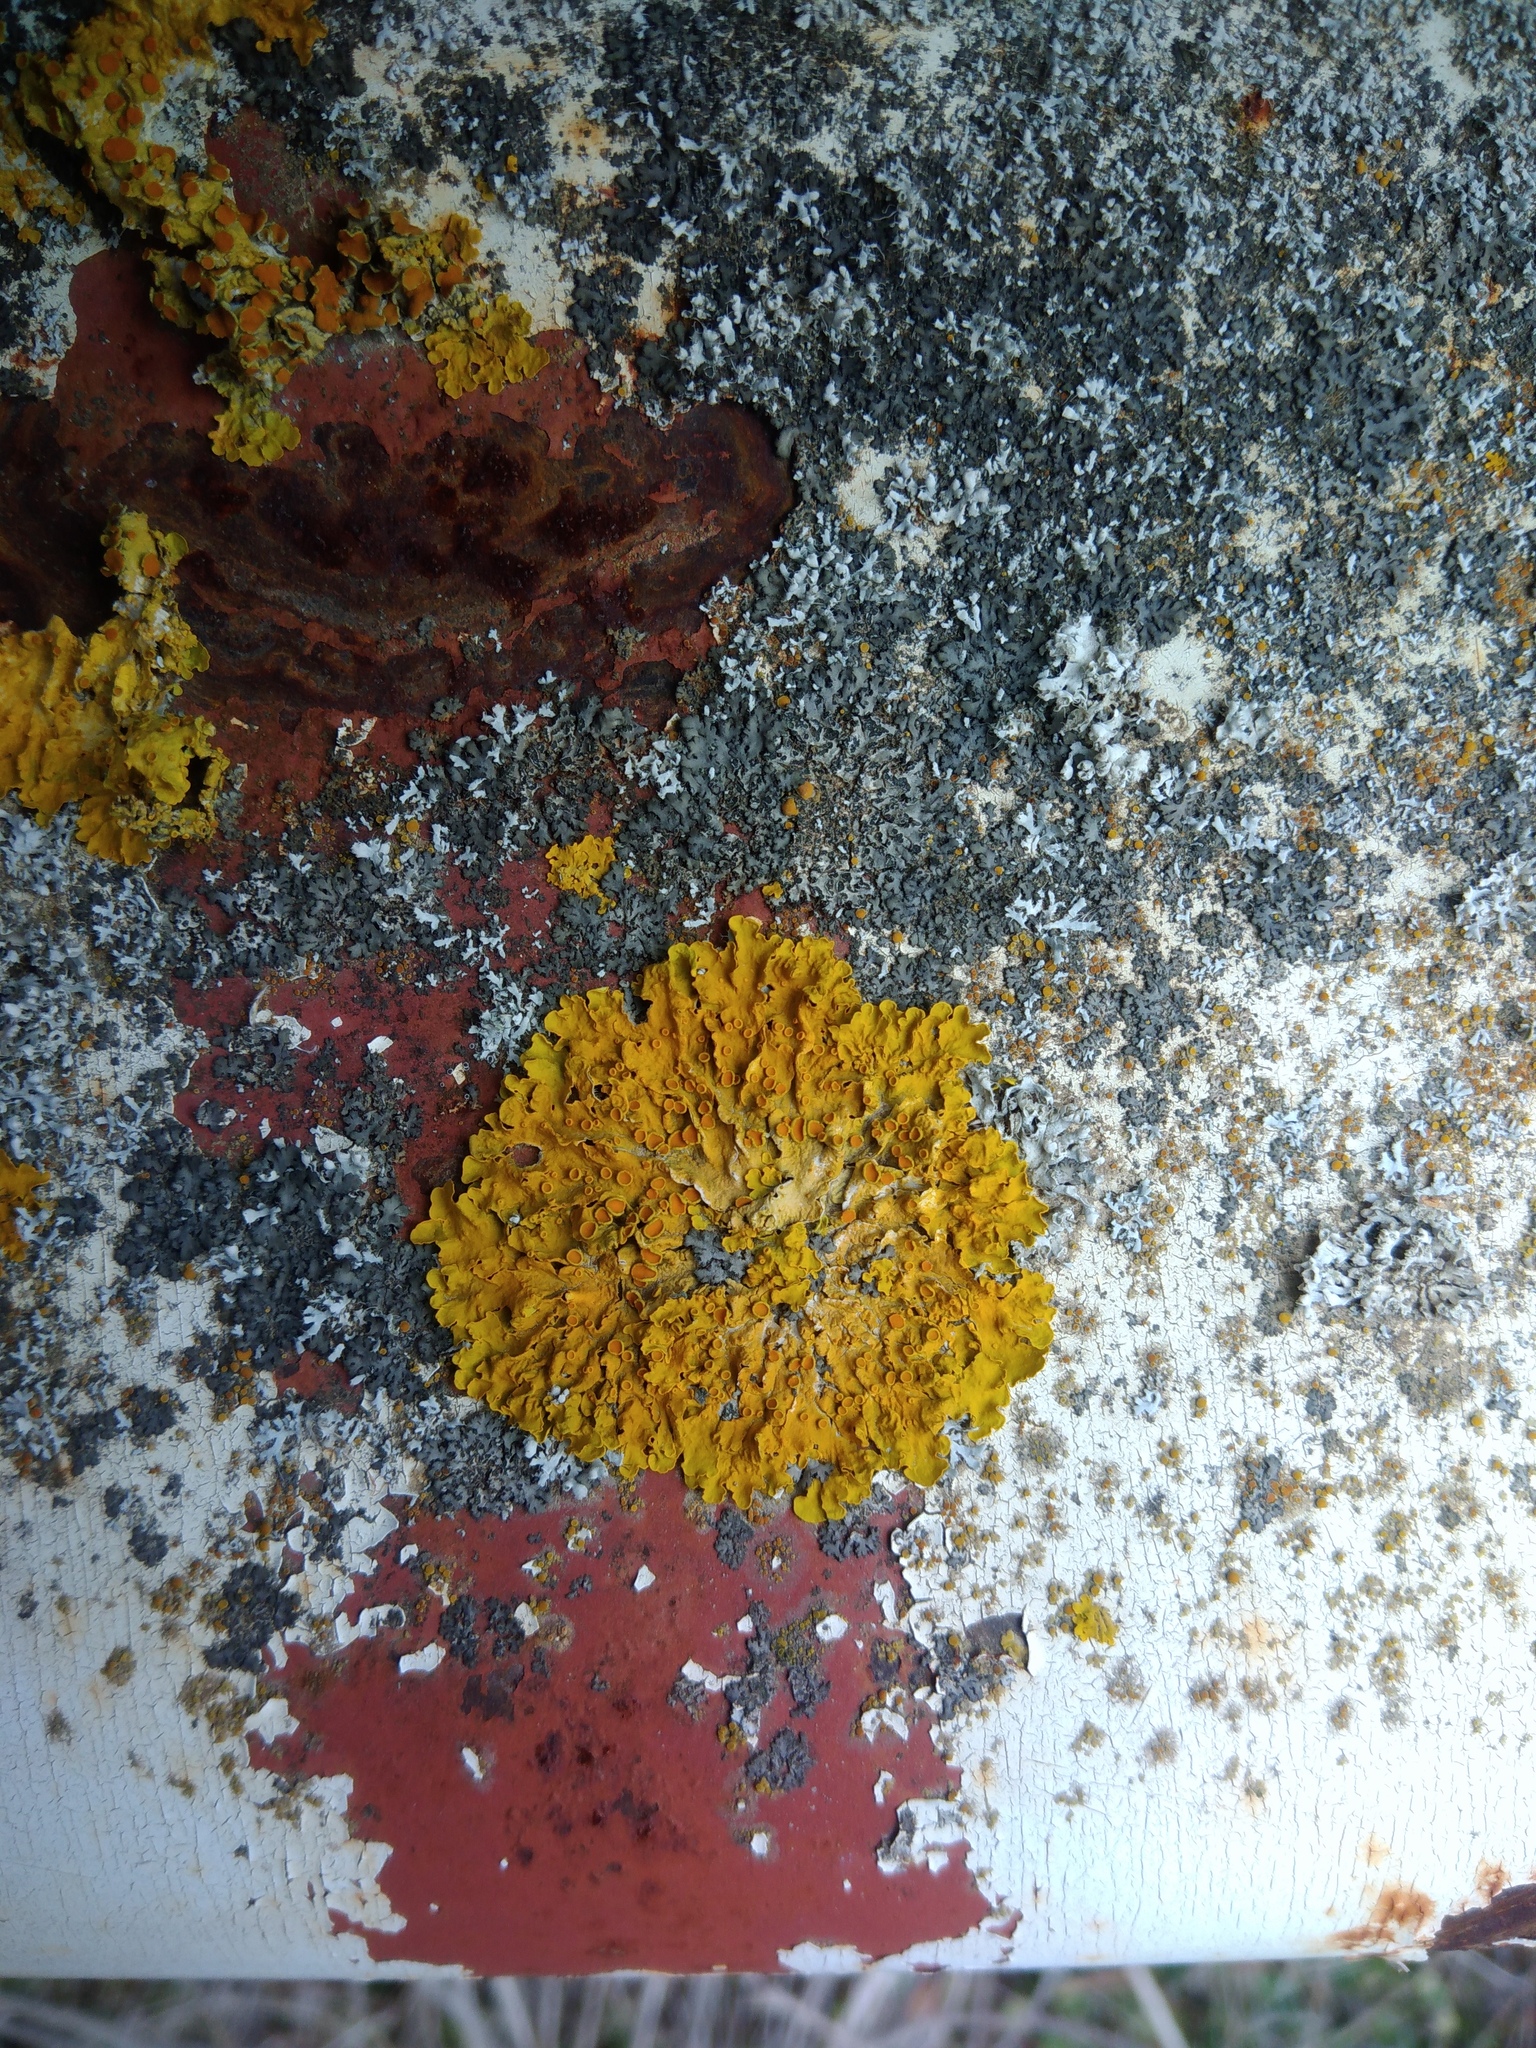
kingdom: Fungi
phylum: Ascomycota
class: Lecanoromycetes
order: Teloschistales
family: Teloschistaceae
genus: Xanthoria
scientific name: Xanthoria parietina
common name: Common orange lichen
